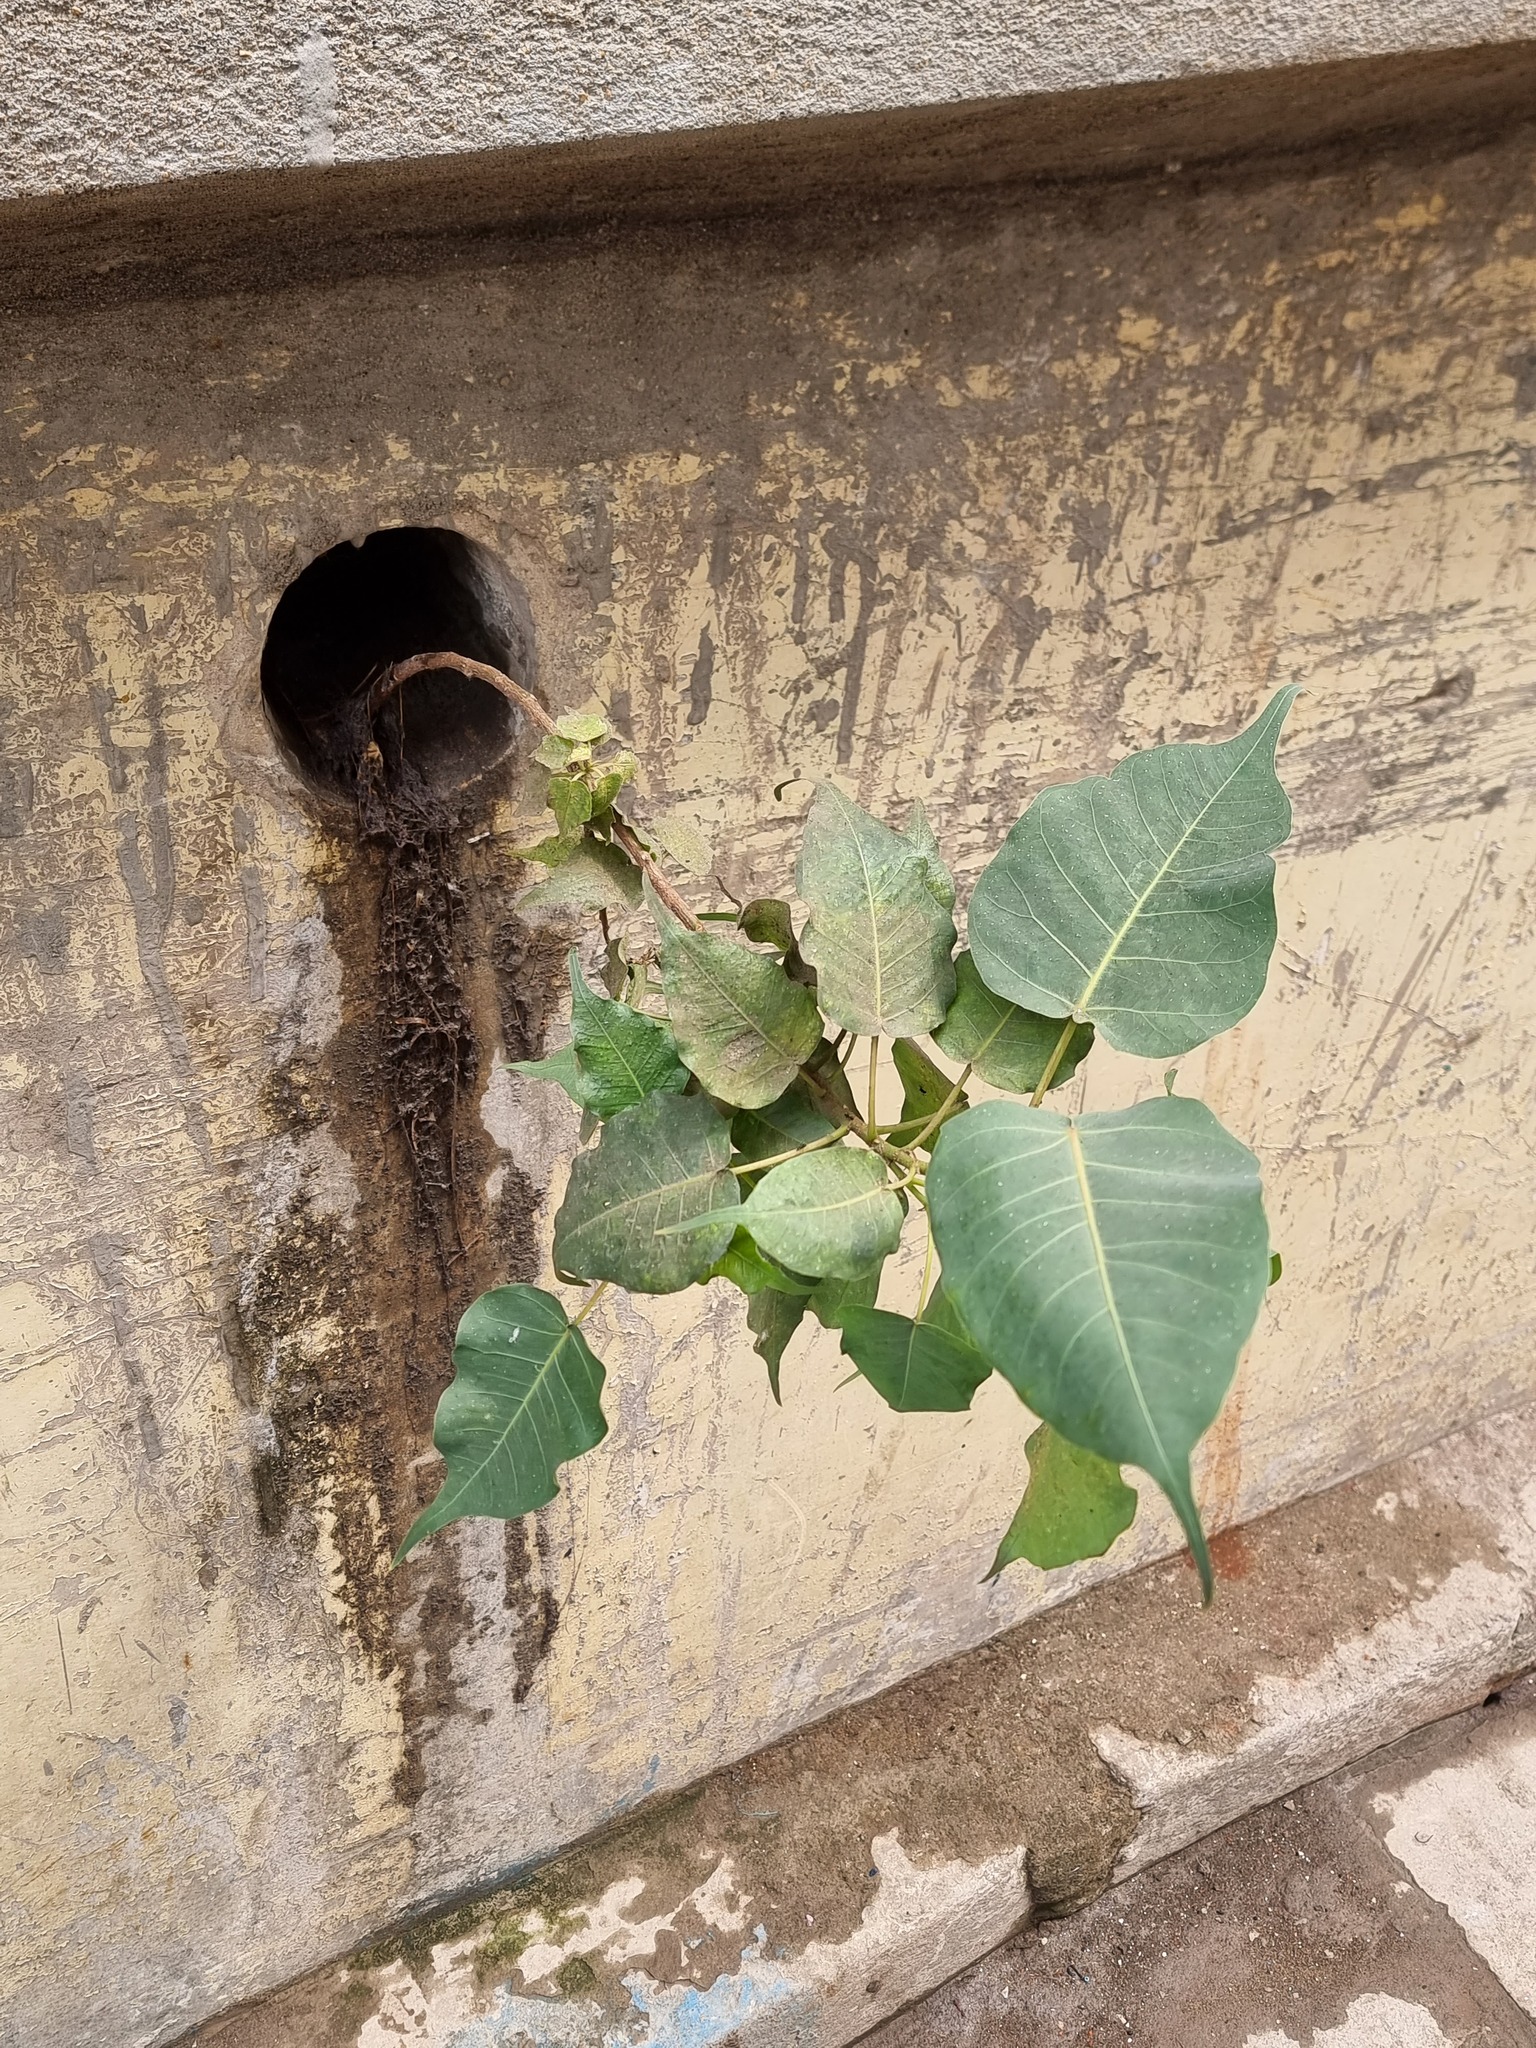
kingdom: Plantae
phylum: Tracheophyta
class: Magnoliopsida
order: Rosales
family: Moraceae
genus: Ficus
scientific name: Ficus religiosa
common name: Bodhi tree
